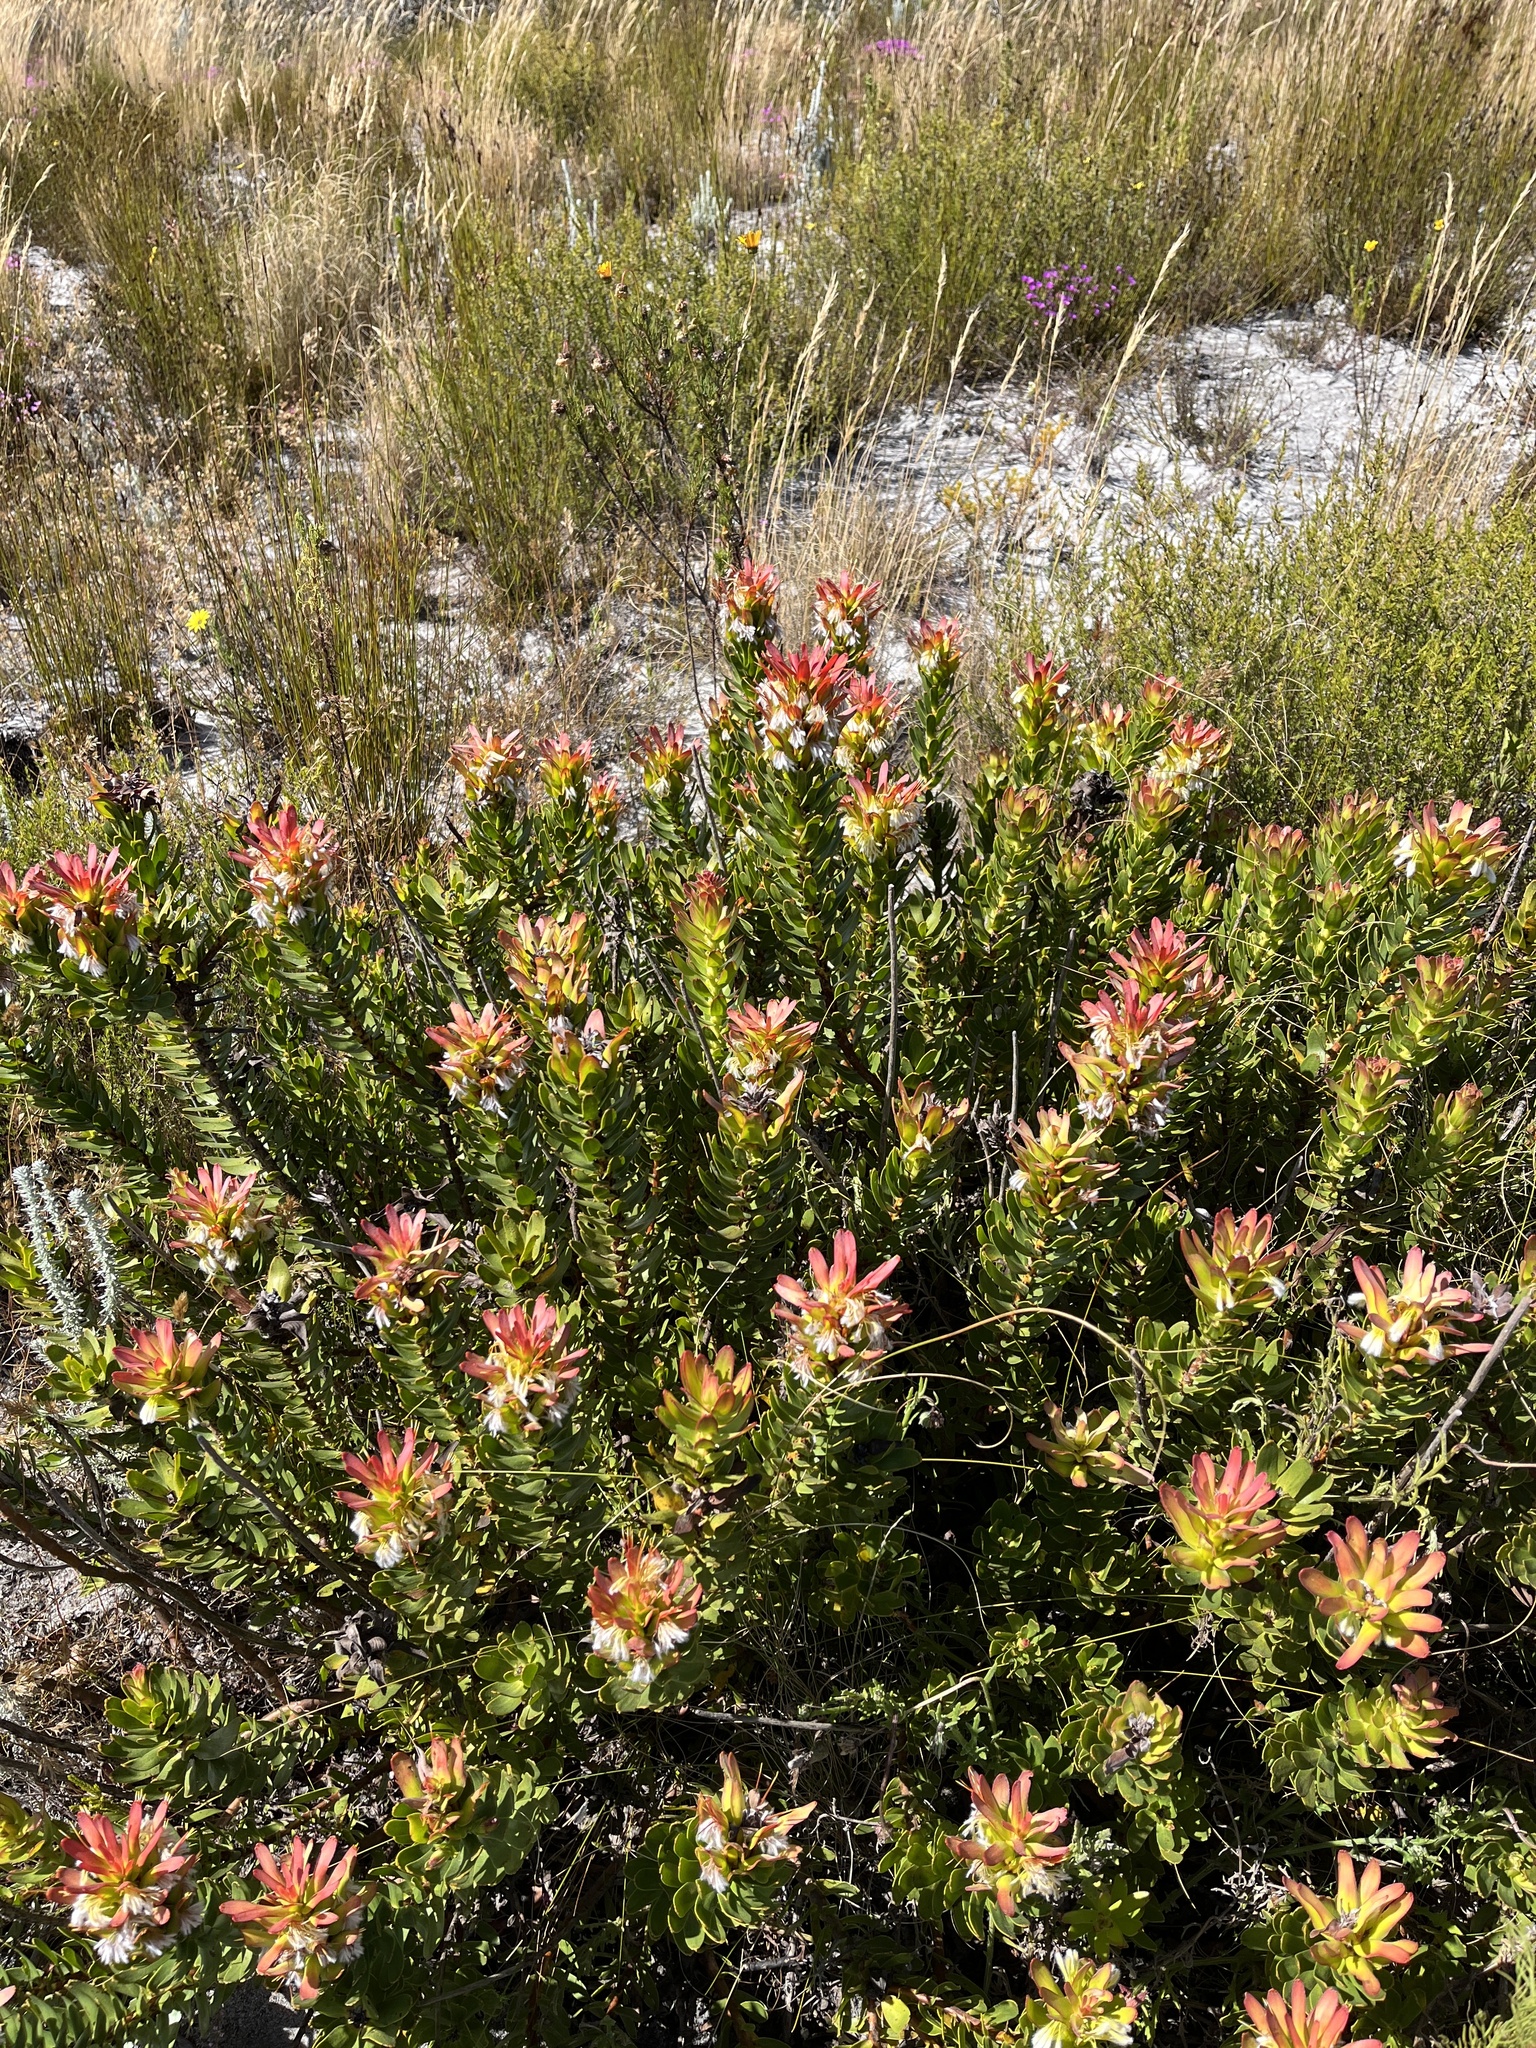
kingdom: Plantae
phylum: Tracheophyta
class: Magnoliopsida
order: Proteales
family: Proteaceae
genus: Mimetes
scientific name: Mimetes cucullatus
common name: Common pagoda
